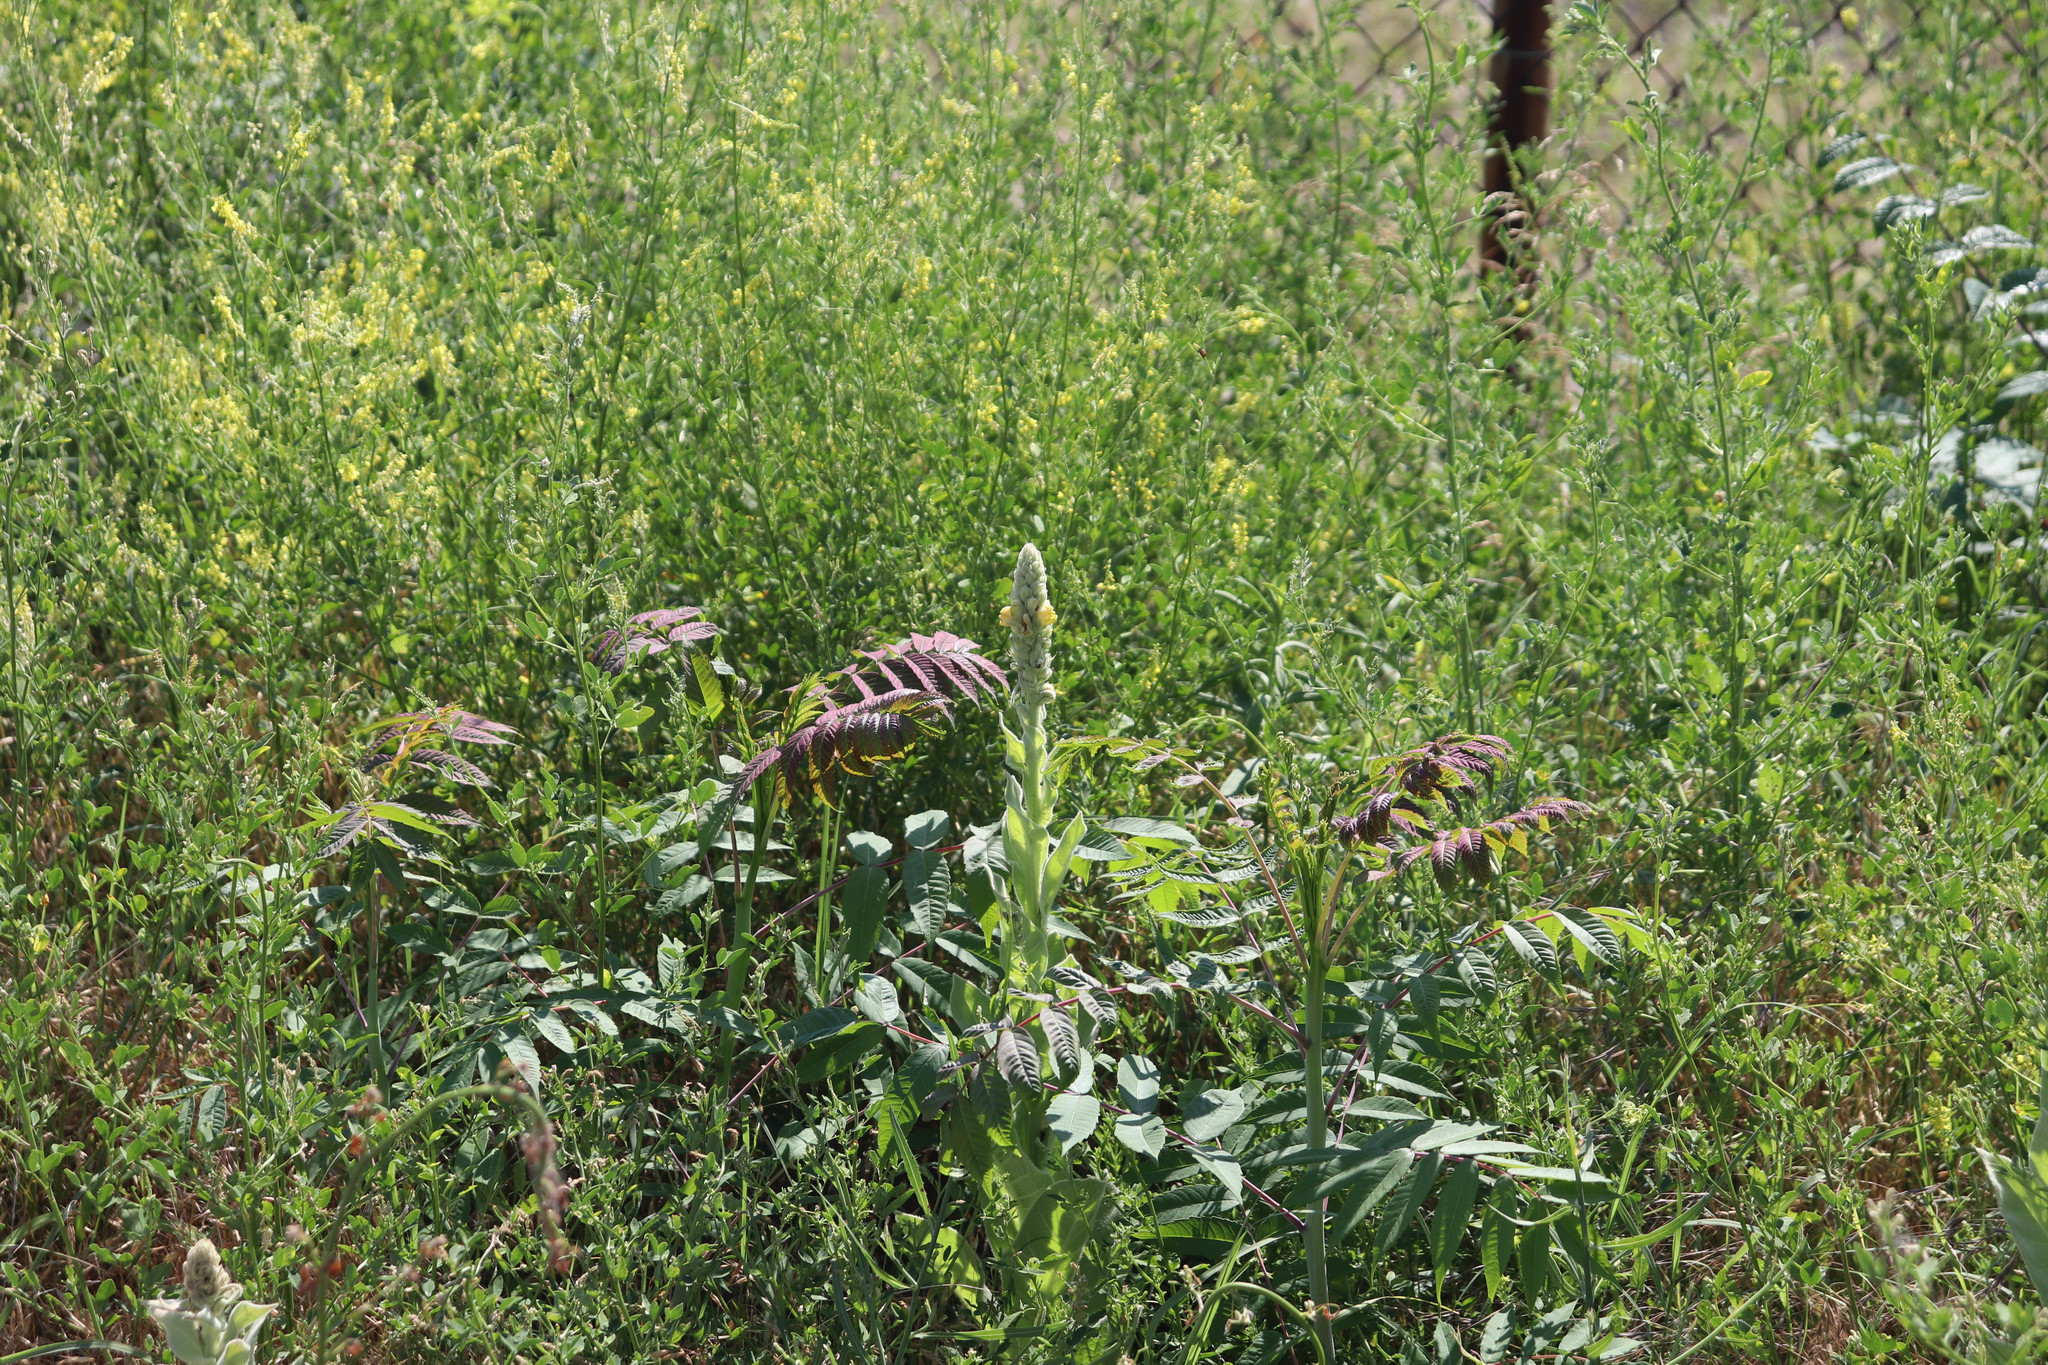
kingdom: Plantae
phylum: Tracheophyta
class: Magnoliopsida
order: Sapindales
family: Anacardiaceae
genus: Rhus
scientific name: Rhus glabra
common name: Scarlet sumac
